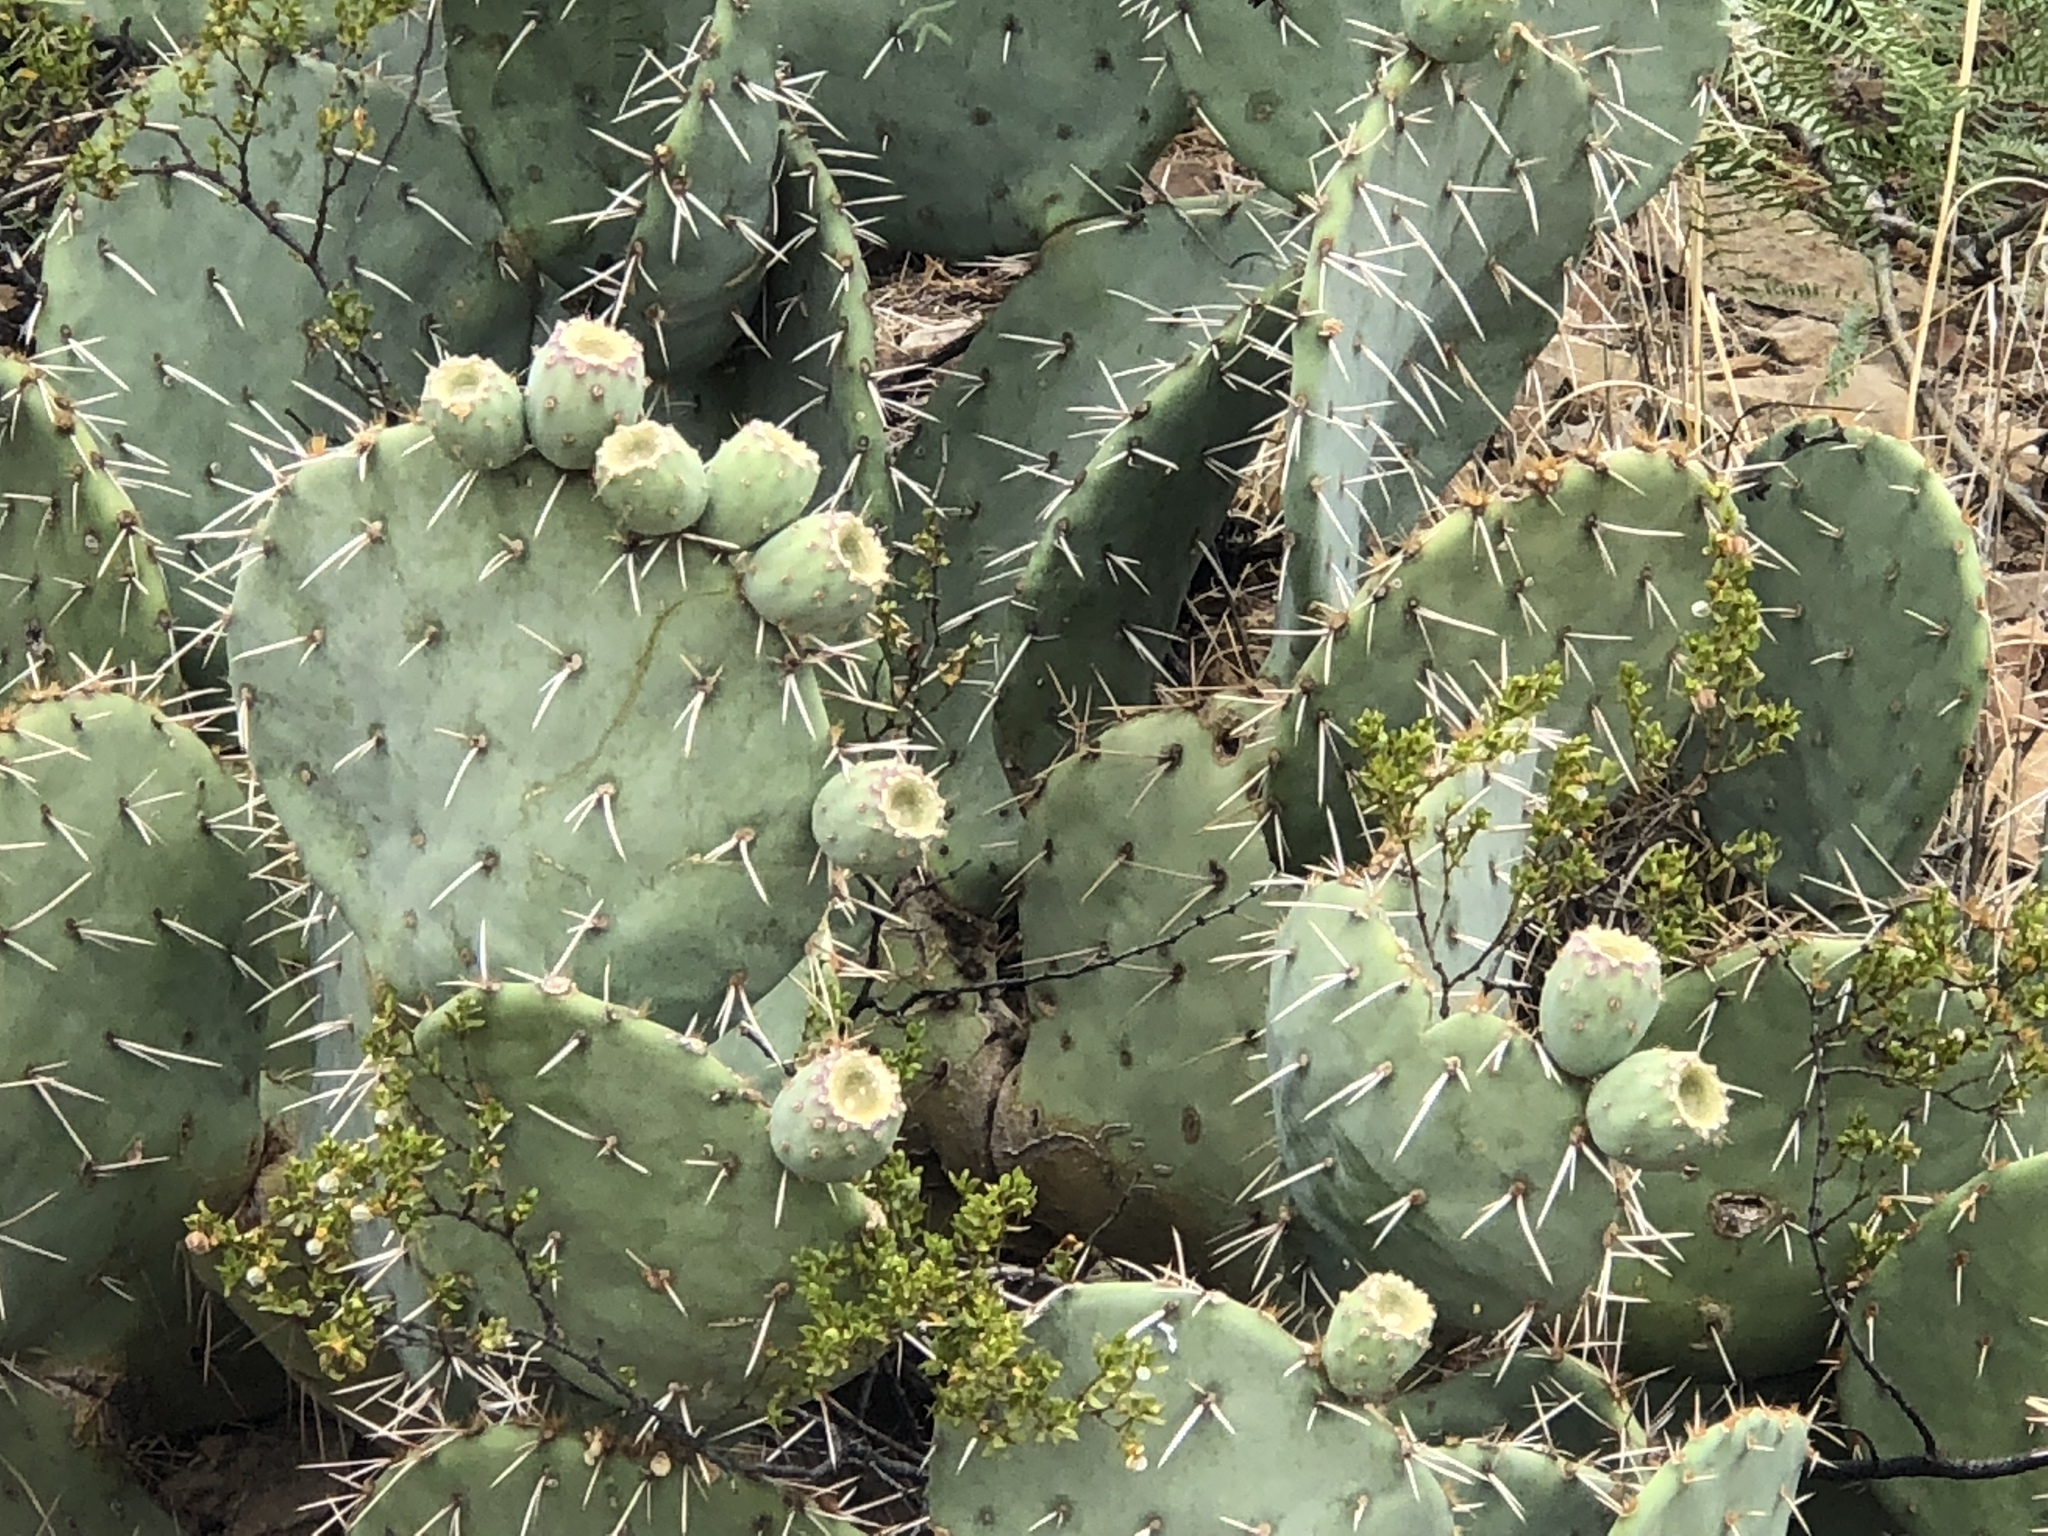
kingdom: Plantae
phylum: Tracheophyta
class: Magnoliopsida
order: Caryophyllales
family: Cactaceae
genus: Opuntia
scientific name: Opuntia engelmannii
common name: Cactus-apple
